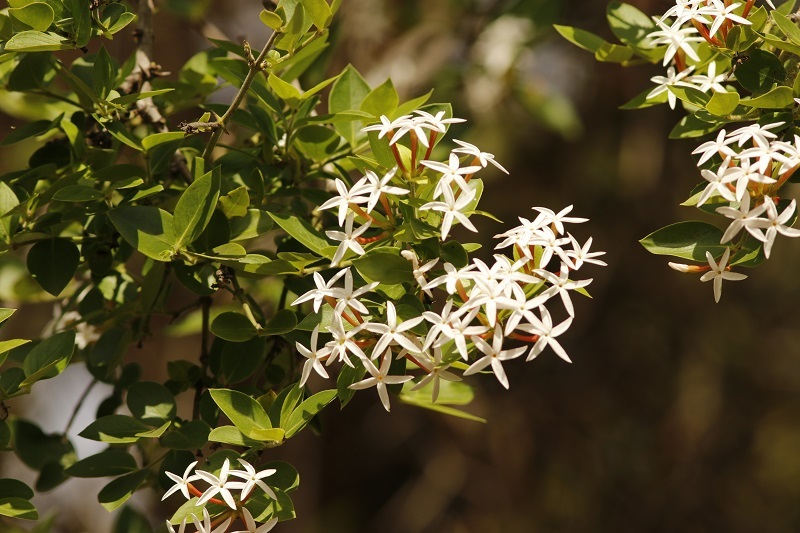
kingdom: Plantae
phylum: Tracheophyta
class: Magnoliopsida
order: Gentianales
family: Apocynaceae
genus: Carissa
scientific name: Carissa spinarum
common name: Egyptian carissa
